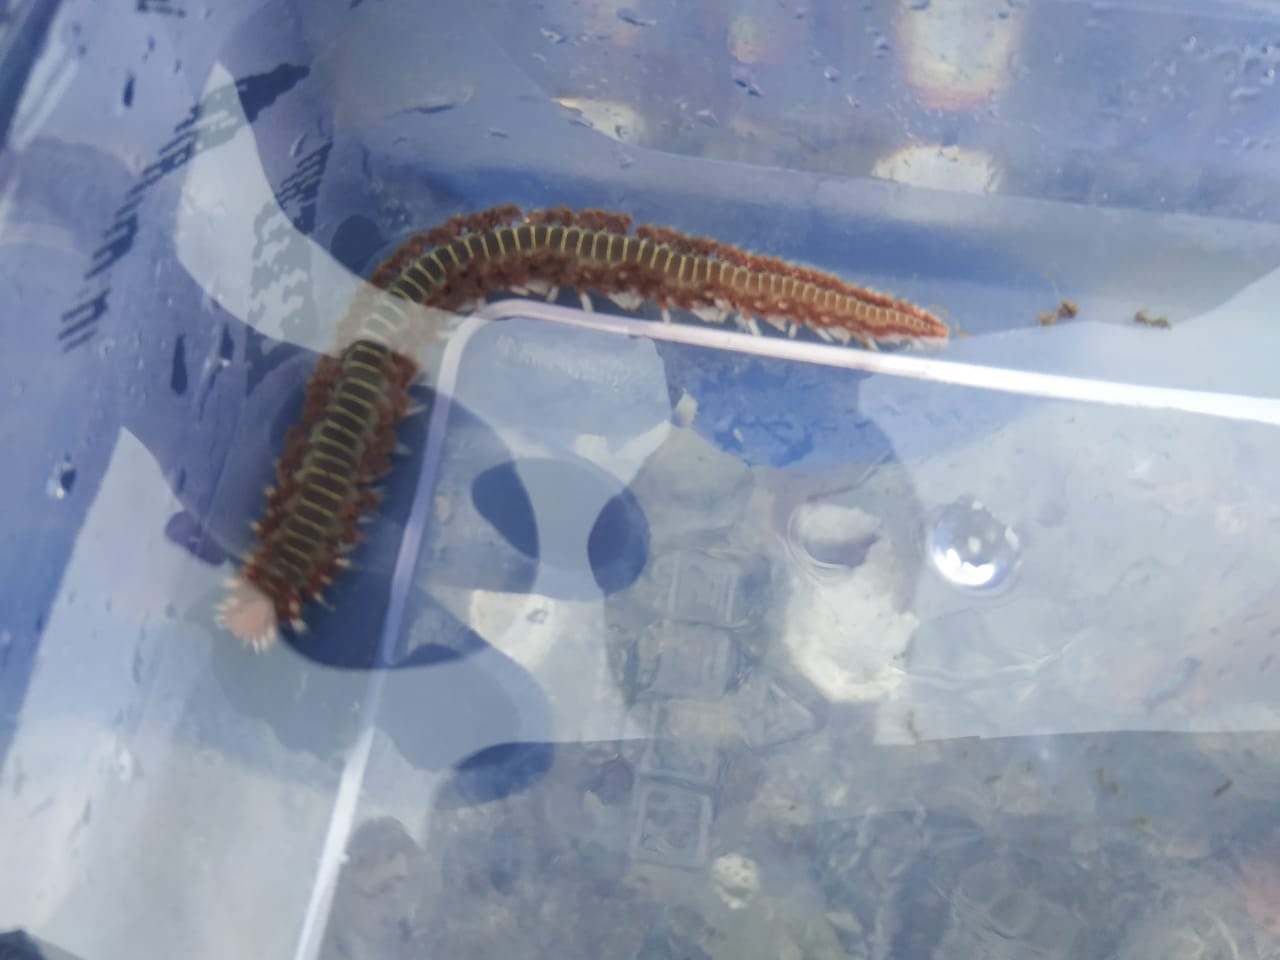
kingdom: Animalia
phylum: Annelida
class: Polychaeta
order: Amphinomida
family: Amphinomidae
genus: Hermodice
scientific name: Hermodice carunculata
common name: Bearded fireworm
